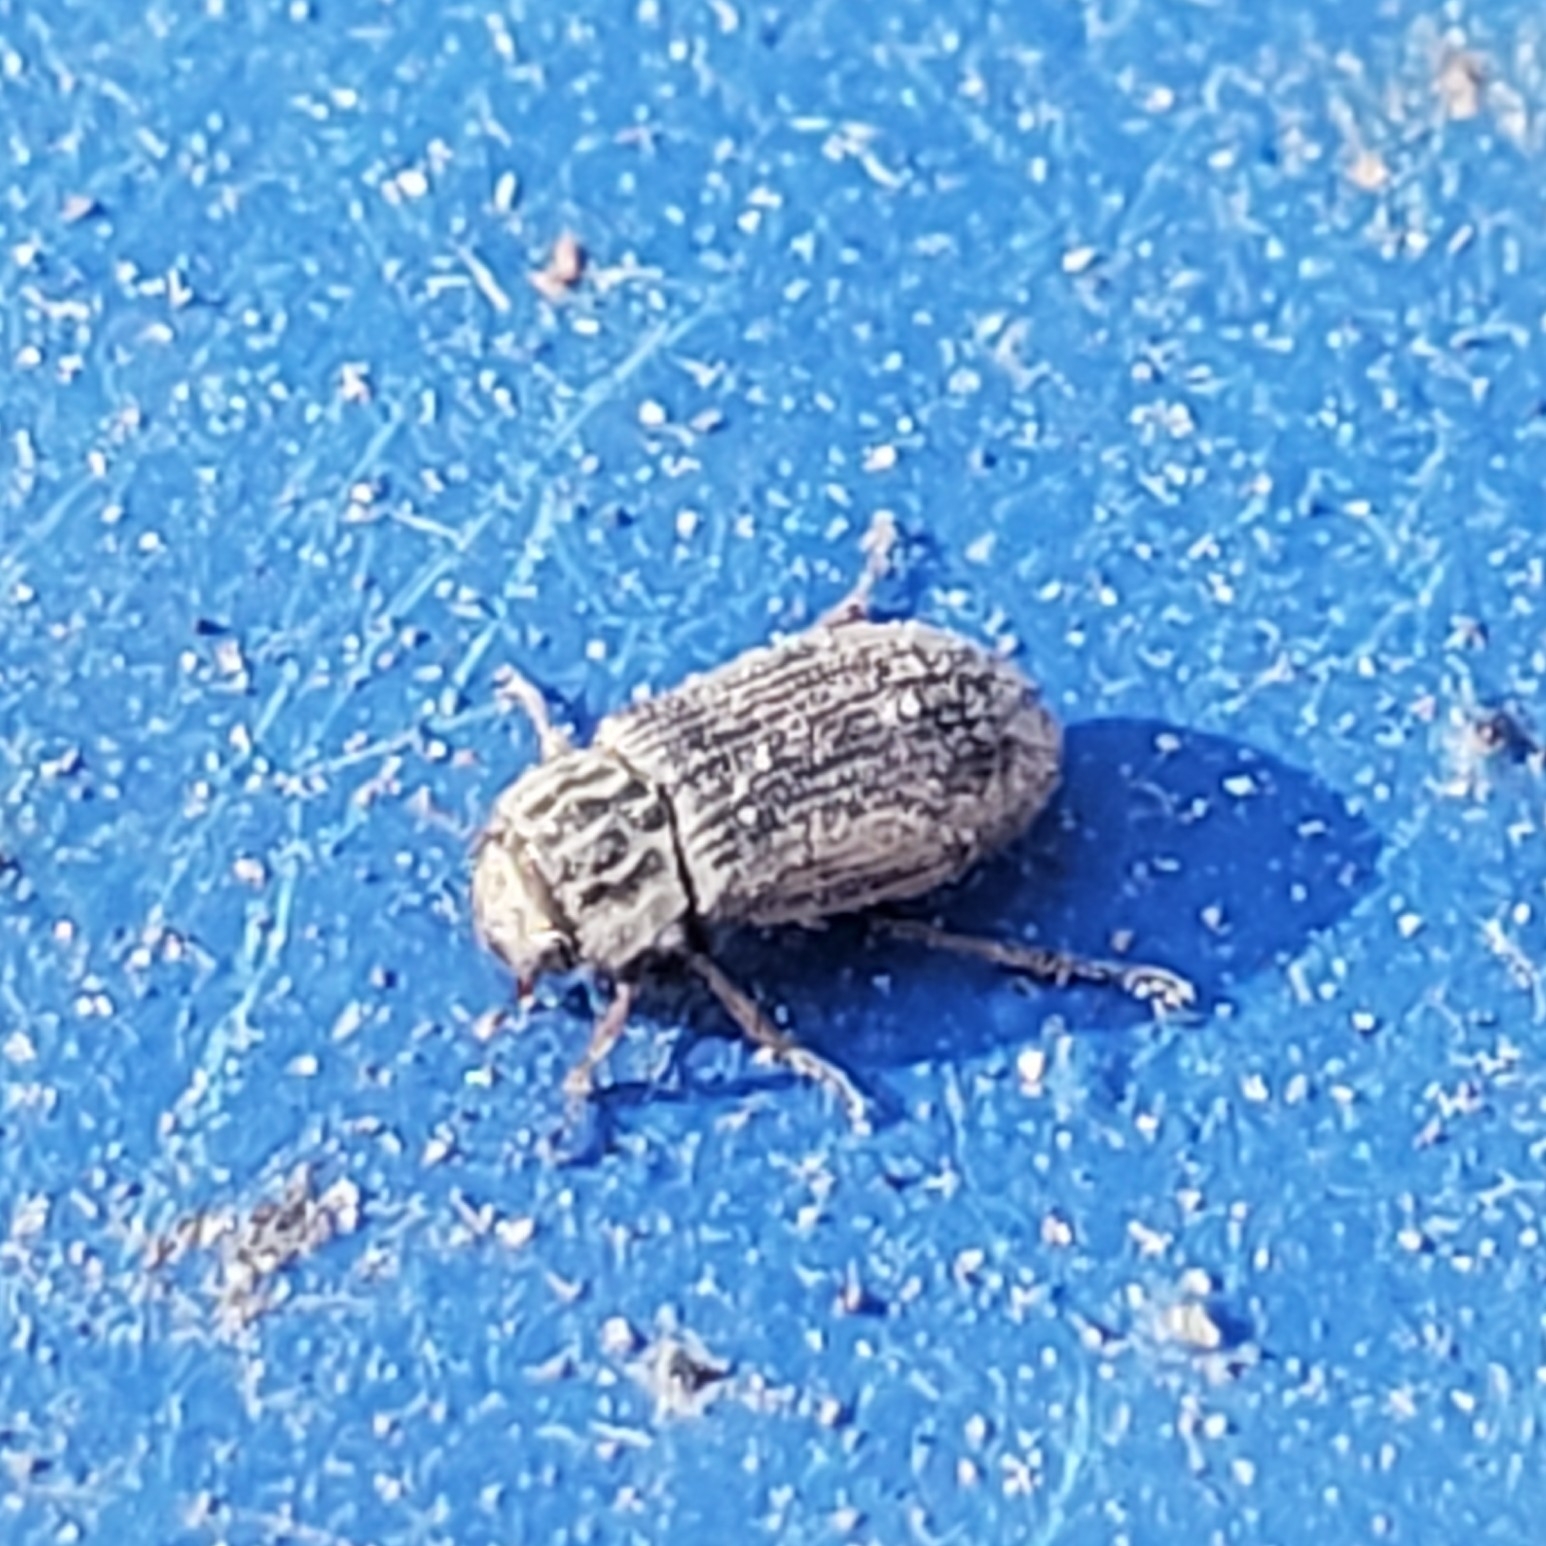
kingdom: Animalia
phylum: Arthropoda
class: Insecta
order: Coleoptera
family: Helophoridae
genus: Helophorus
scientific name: Helophorus
